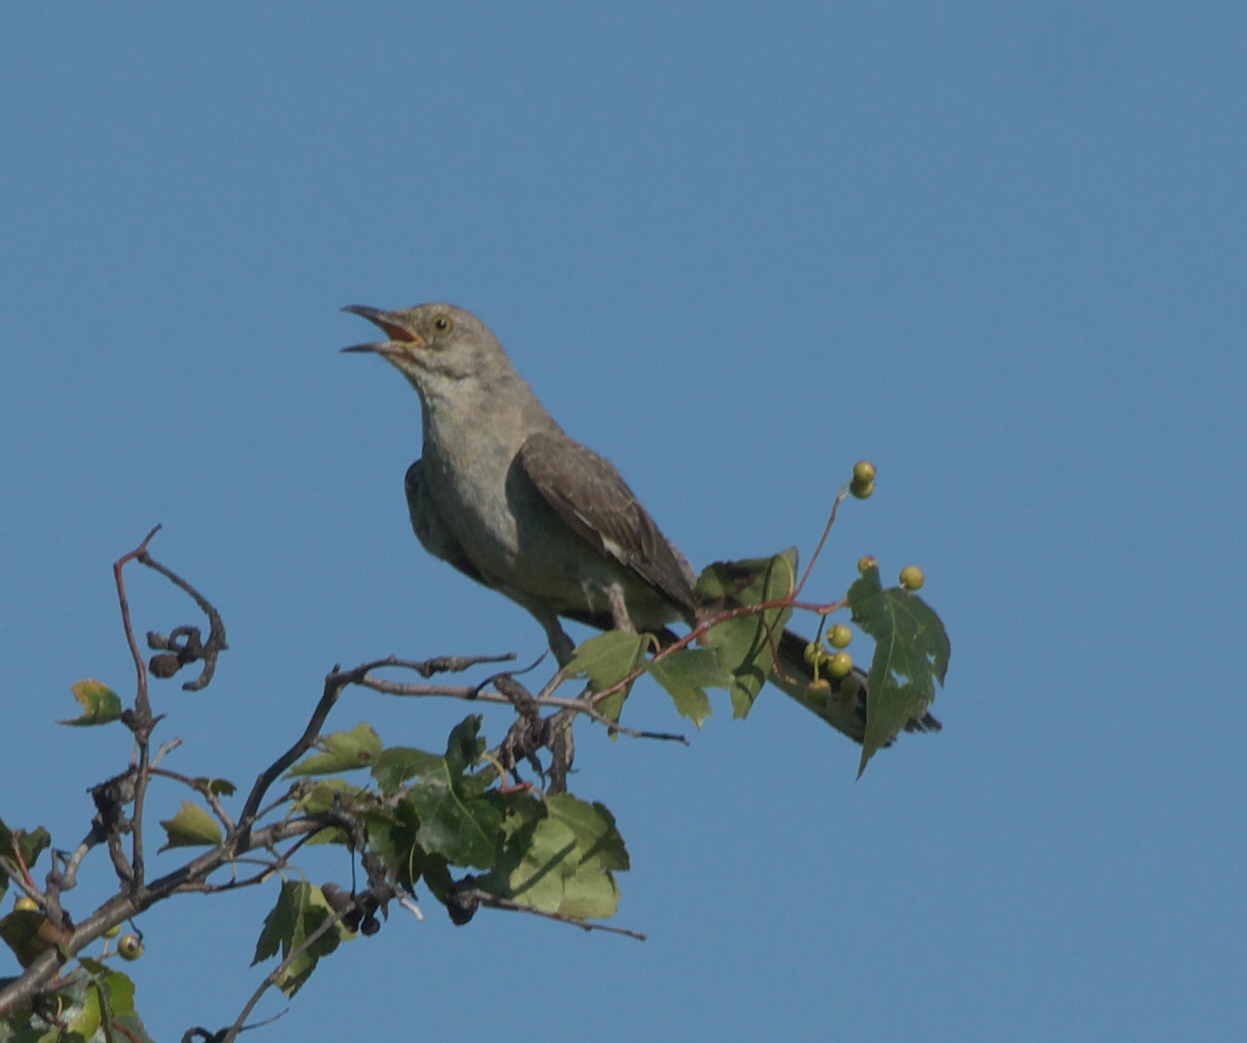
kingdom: Animalia
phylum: Chordata
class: Aves
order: Passeriformes
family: Mimidae
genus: Mimus
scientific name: Mimus polyglottos
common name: Northern mockingbird
